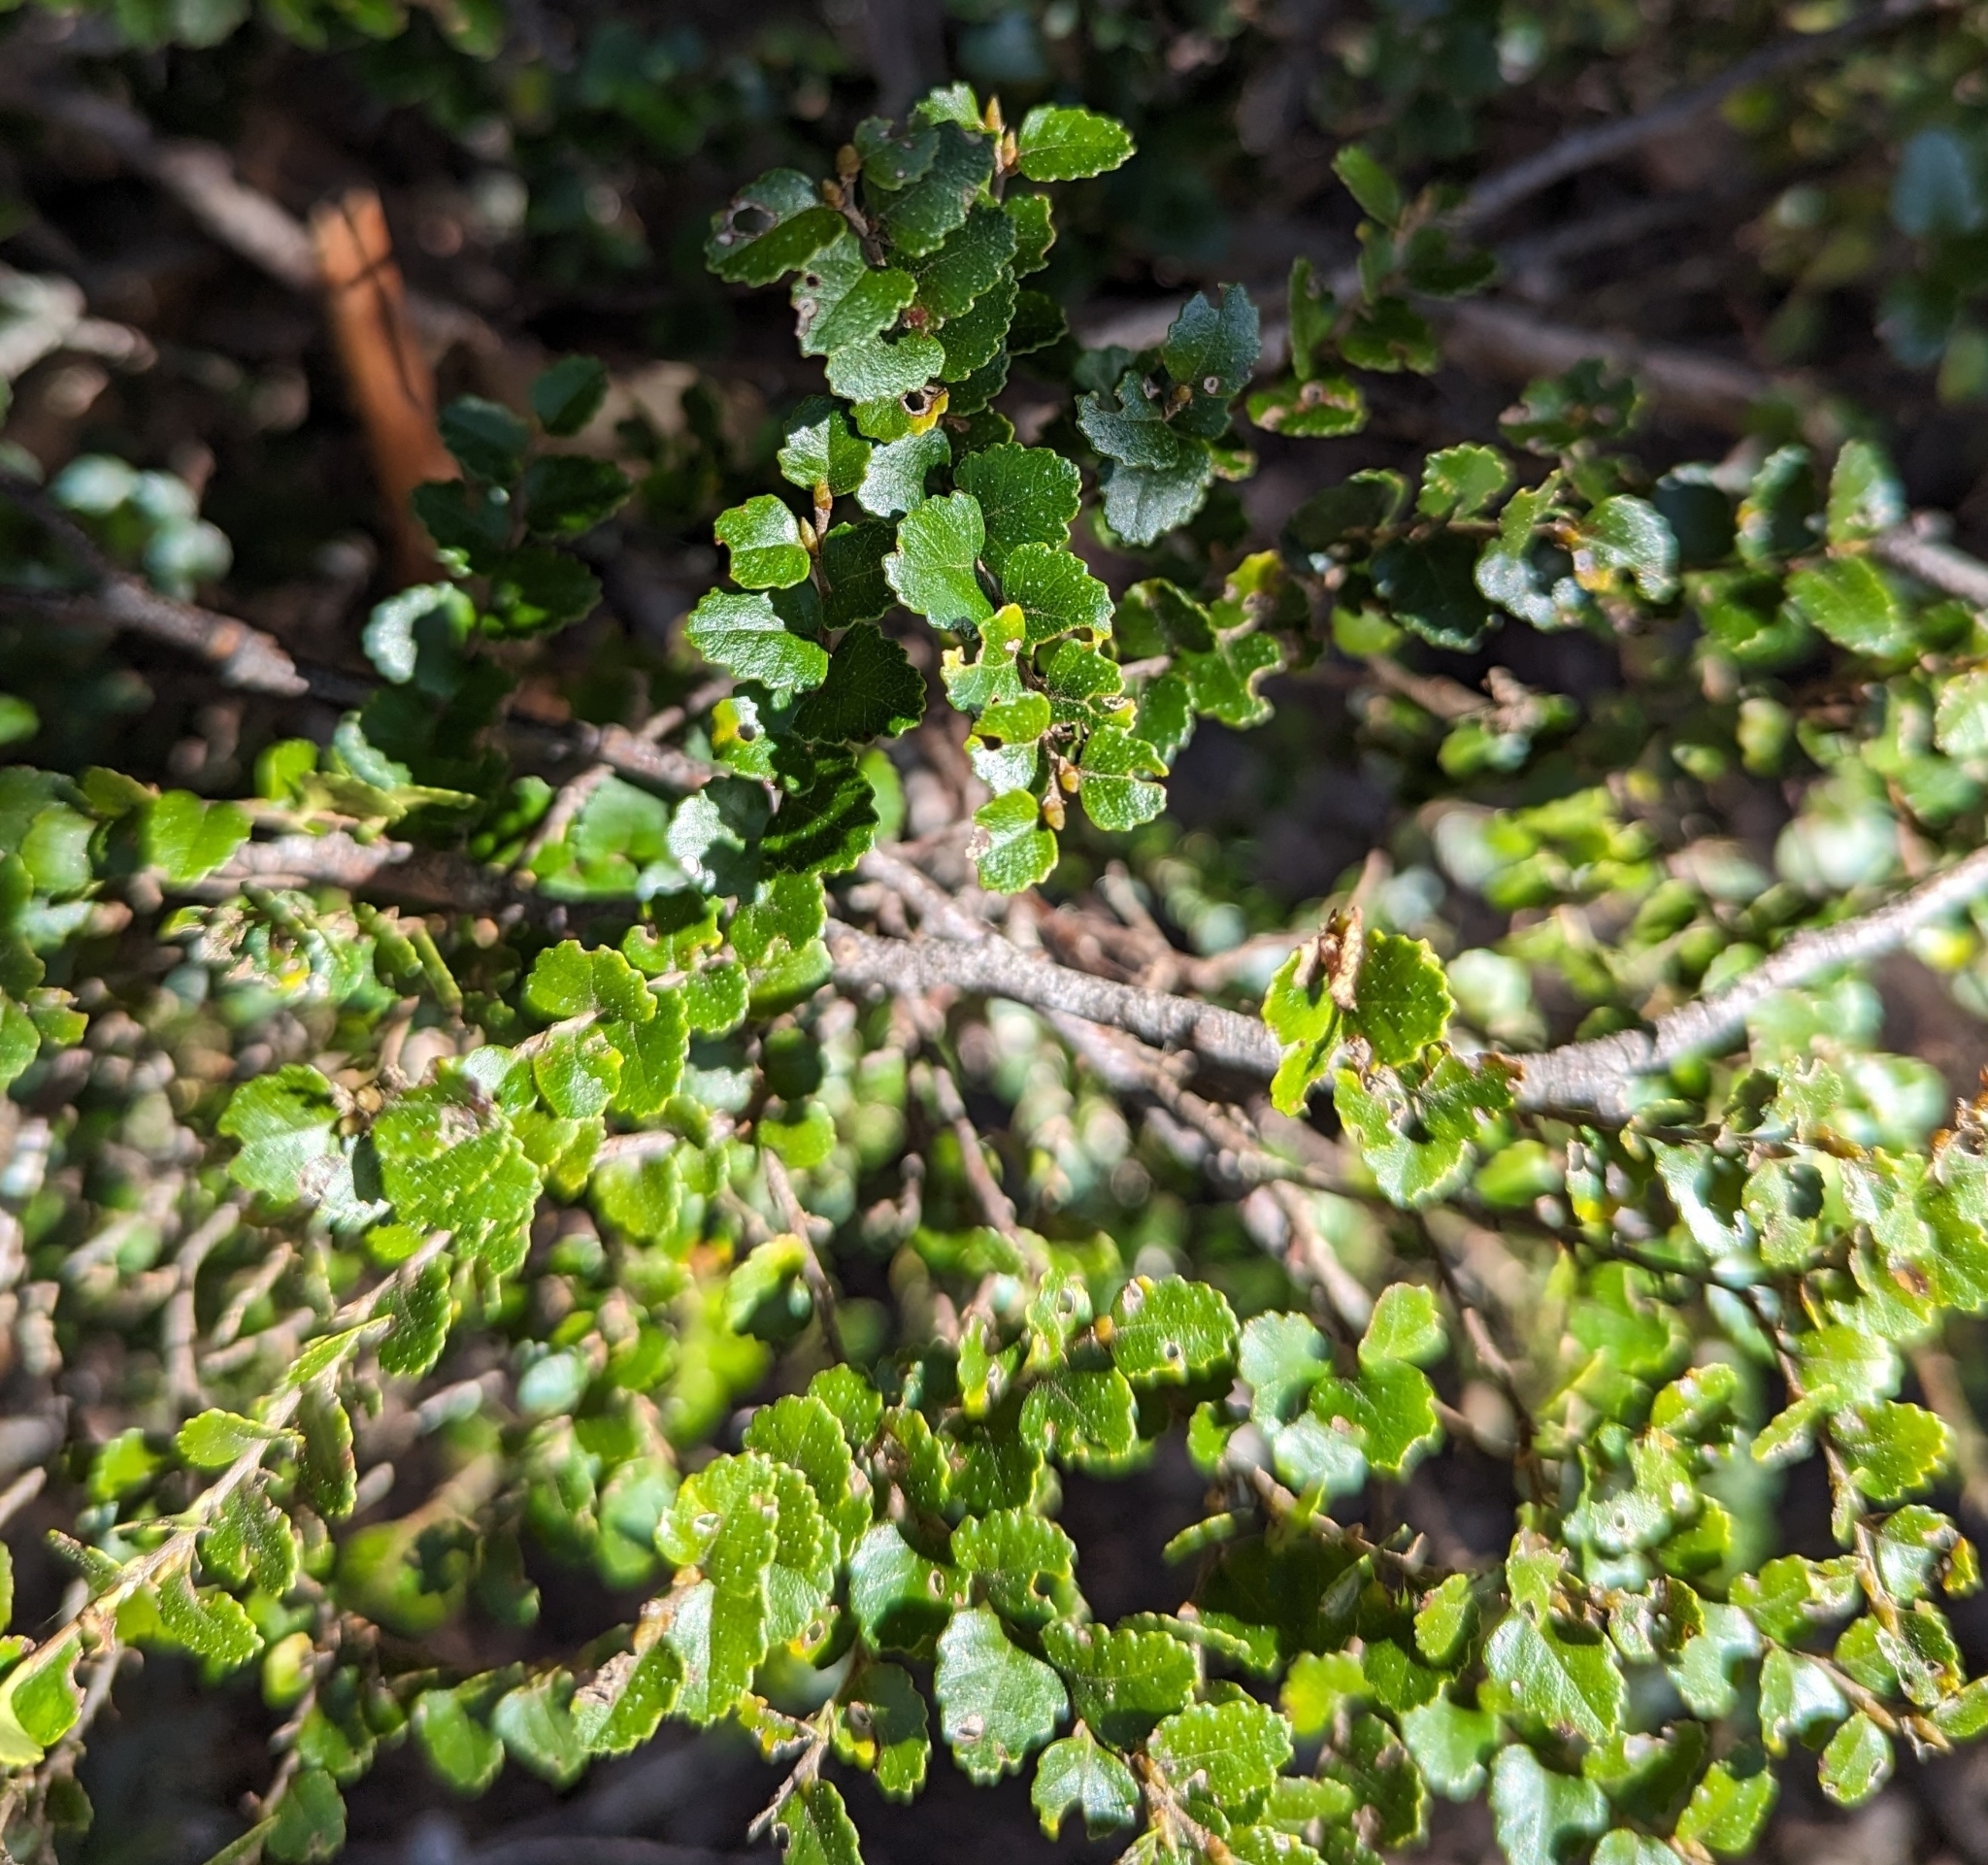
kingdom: Plantae
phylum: Tracheophyta
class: Magnoliopsida
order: Fagales
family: Nothofagaceae
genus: Nothofagus
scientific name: Nothofagus cunninghamii
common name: Myrtle beech
